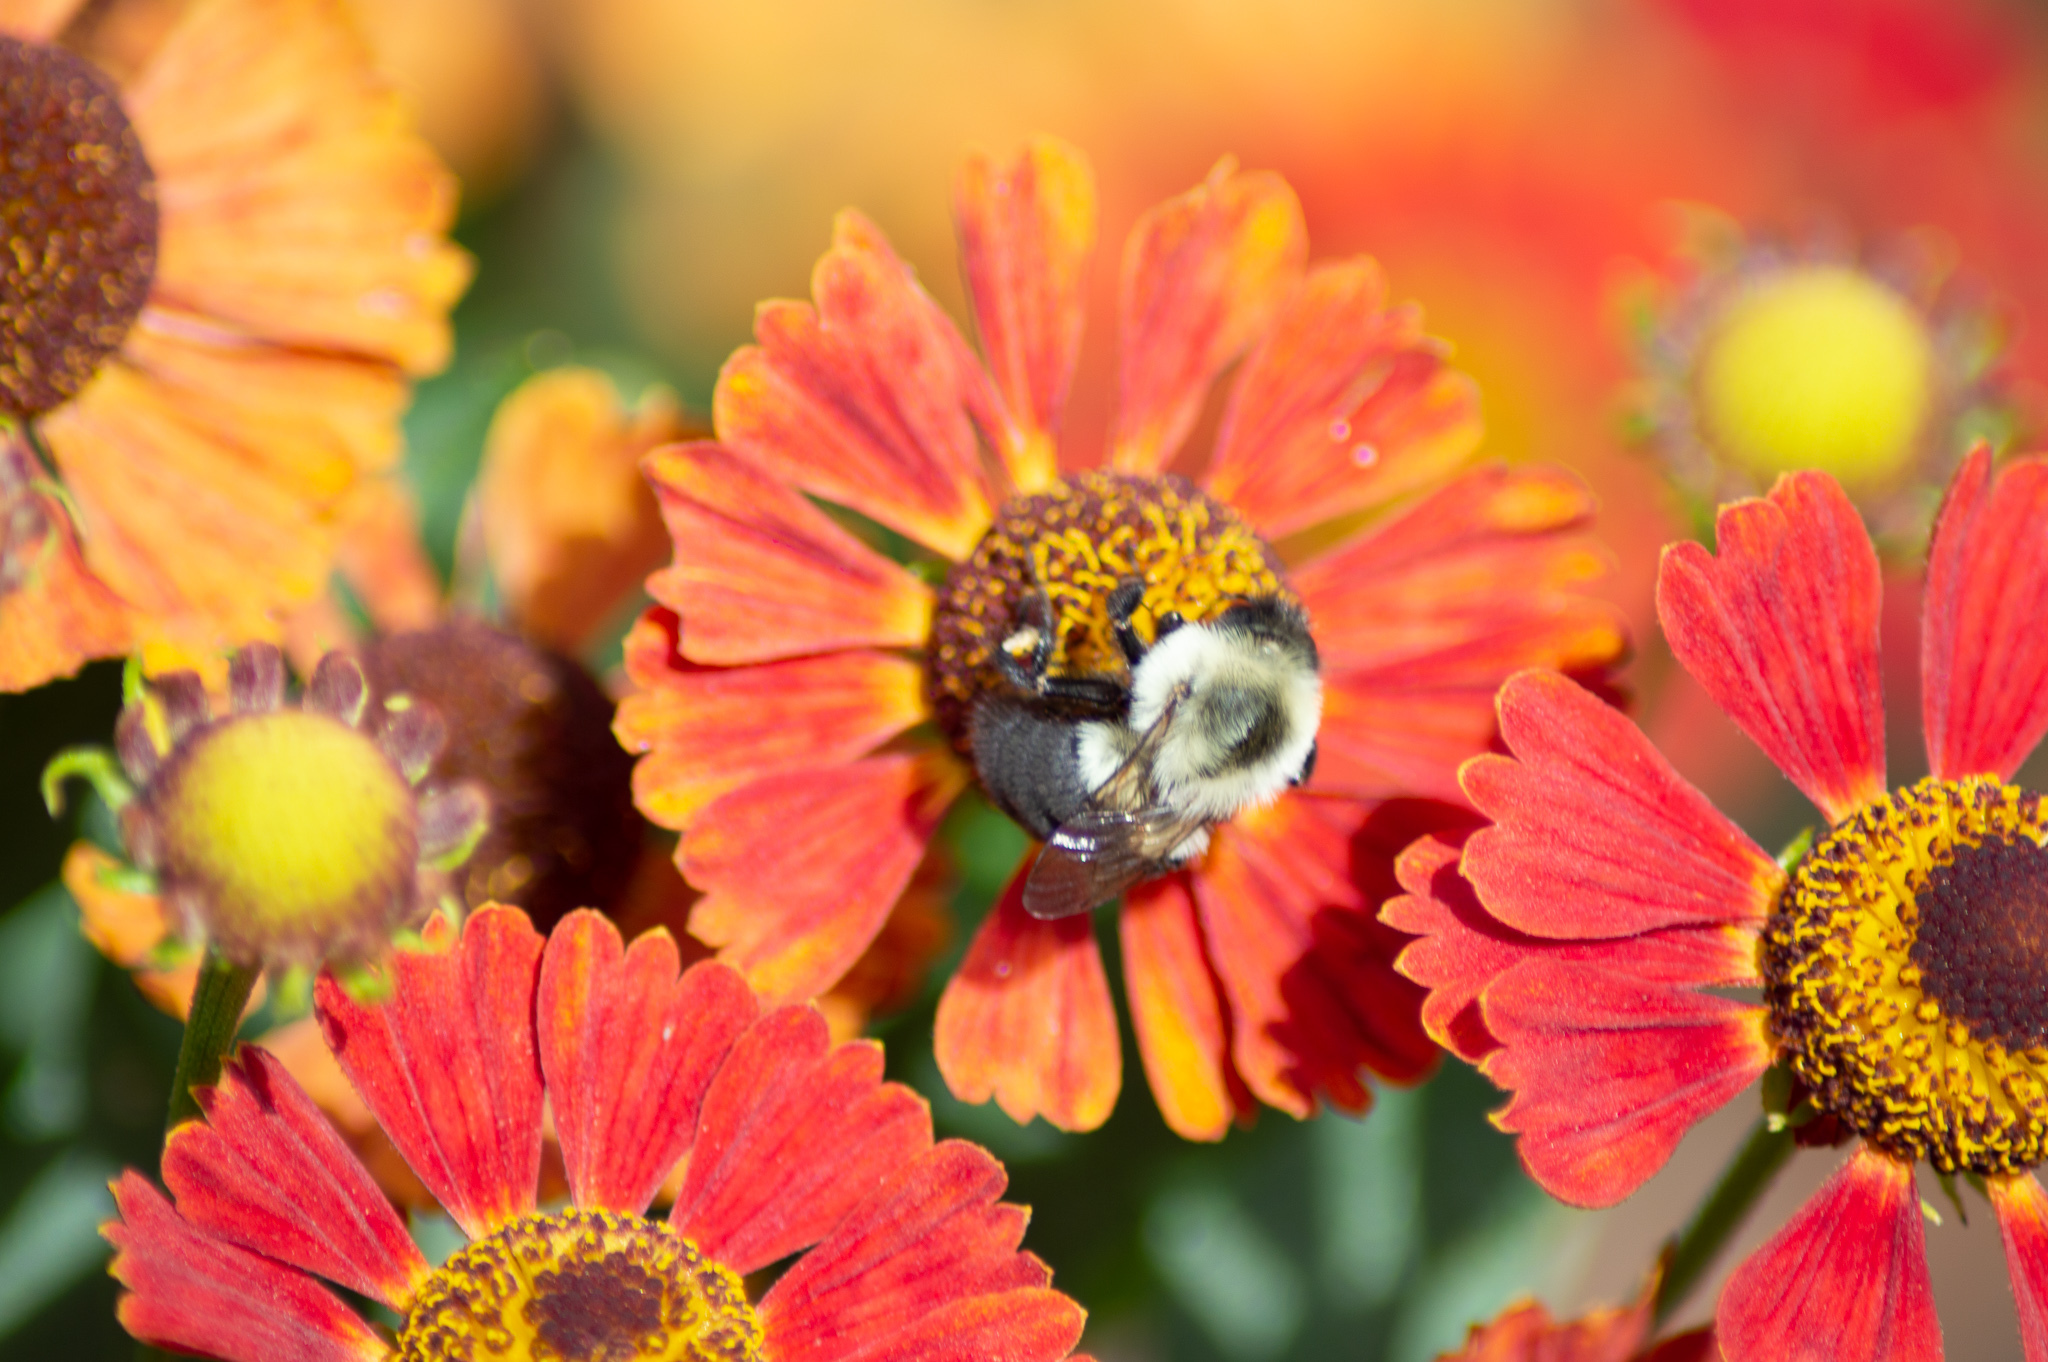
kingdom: Animalia
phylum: Arthropoda
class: Insecta
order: Hymenoptera
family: Apidae
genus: Bombus
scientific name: Bombus impatiens
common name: Common eastern bumble bee
